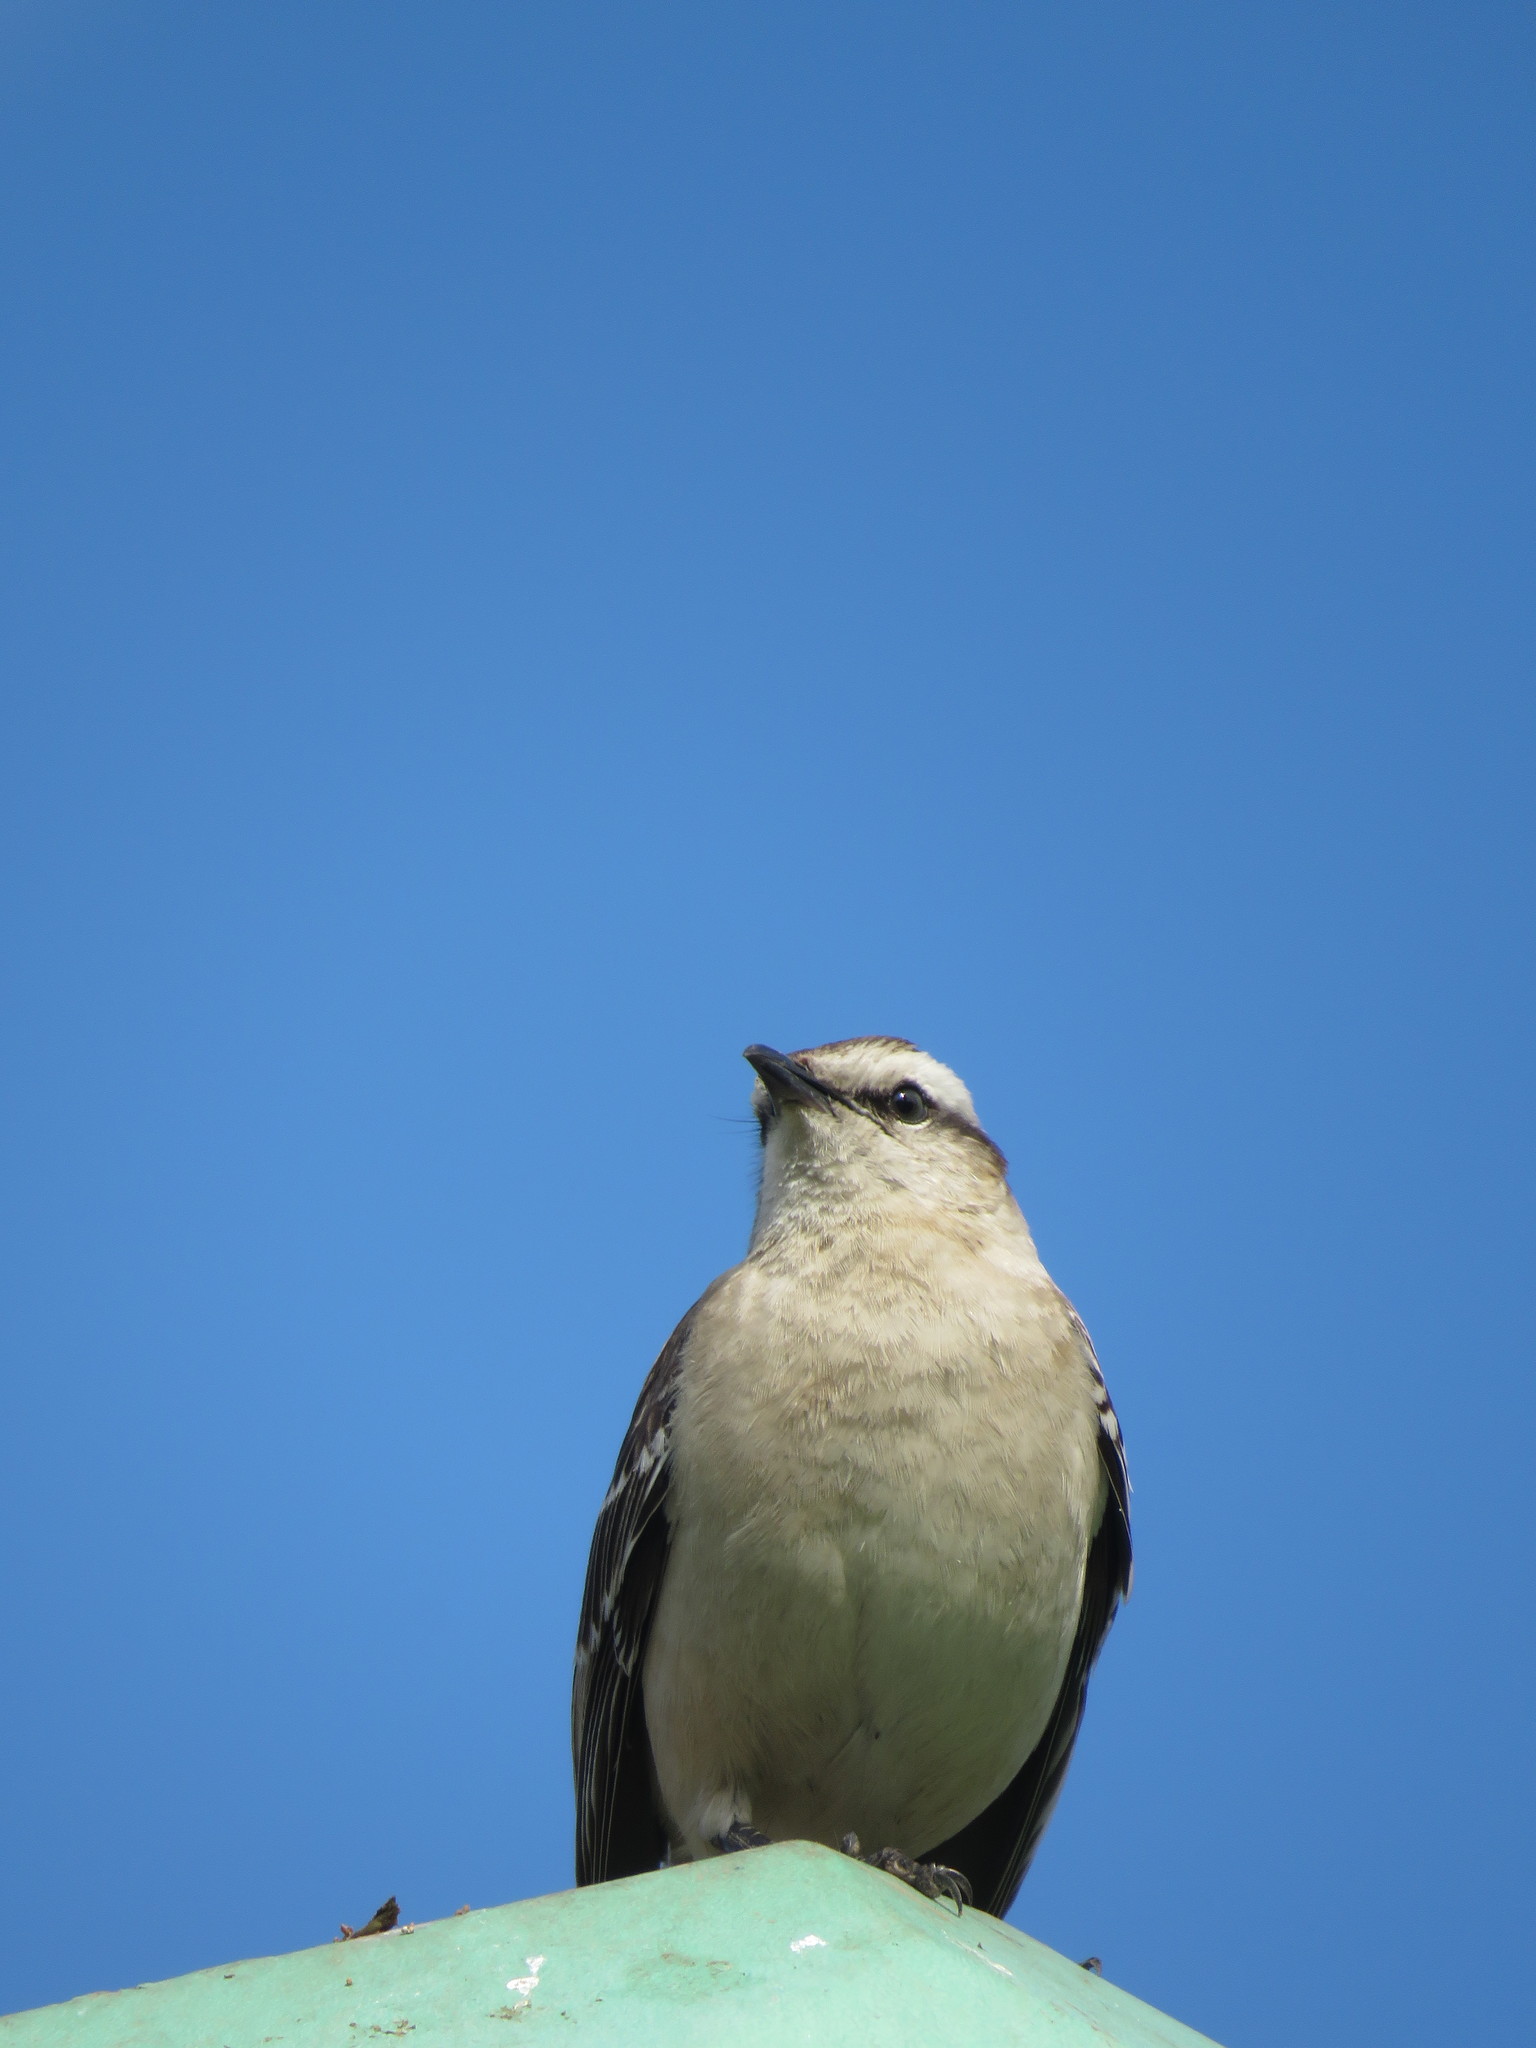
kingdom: Animalia
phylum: Chordata
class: Aves
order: Passeriformes
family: Mimidae
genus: Mimus
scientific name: Mimus saturninus
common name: Chalk-browed mockingbird
